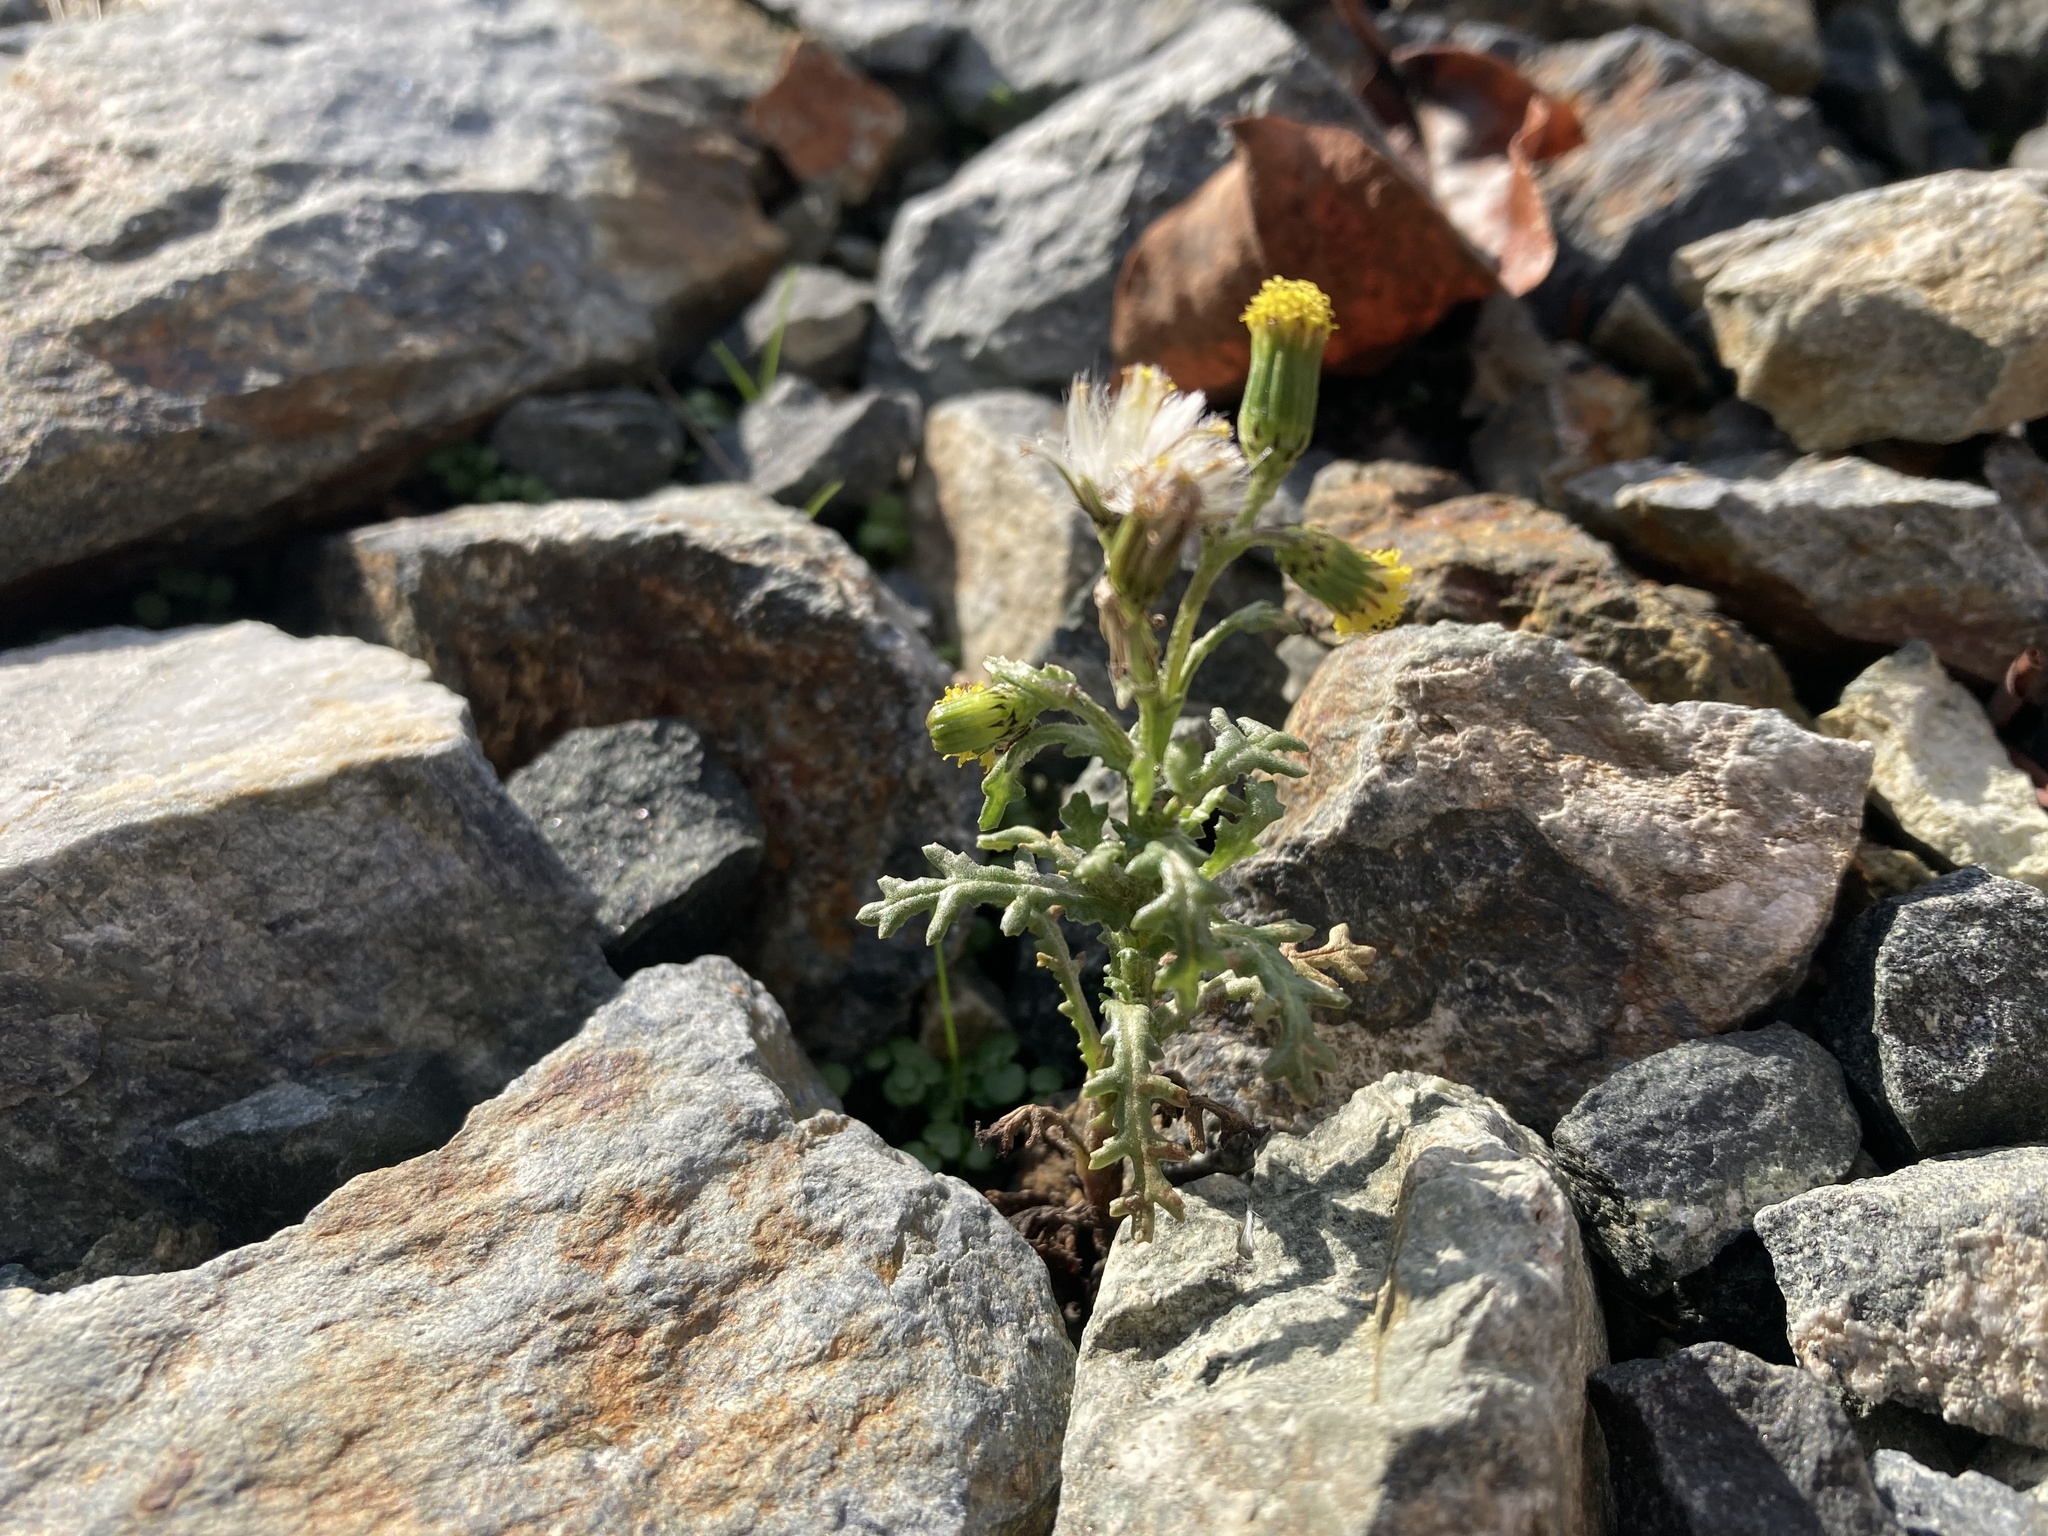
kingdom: Plantae
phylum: Tracheophyta
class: Magnoliopsida
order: Asterales
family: Asteraceae
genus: Senecio
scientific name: Senecio vulgaris
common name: Old-man-in-the-spring
